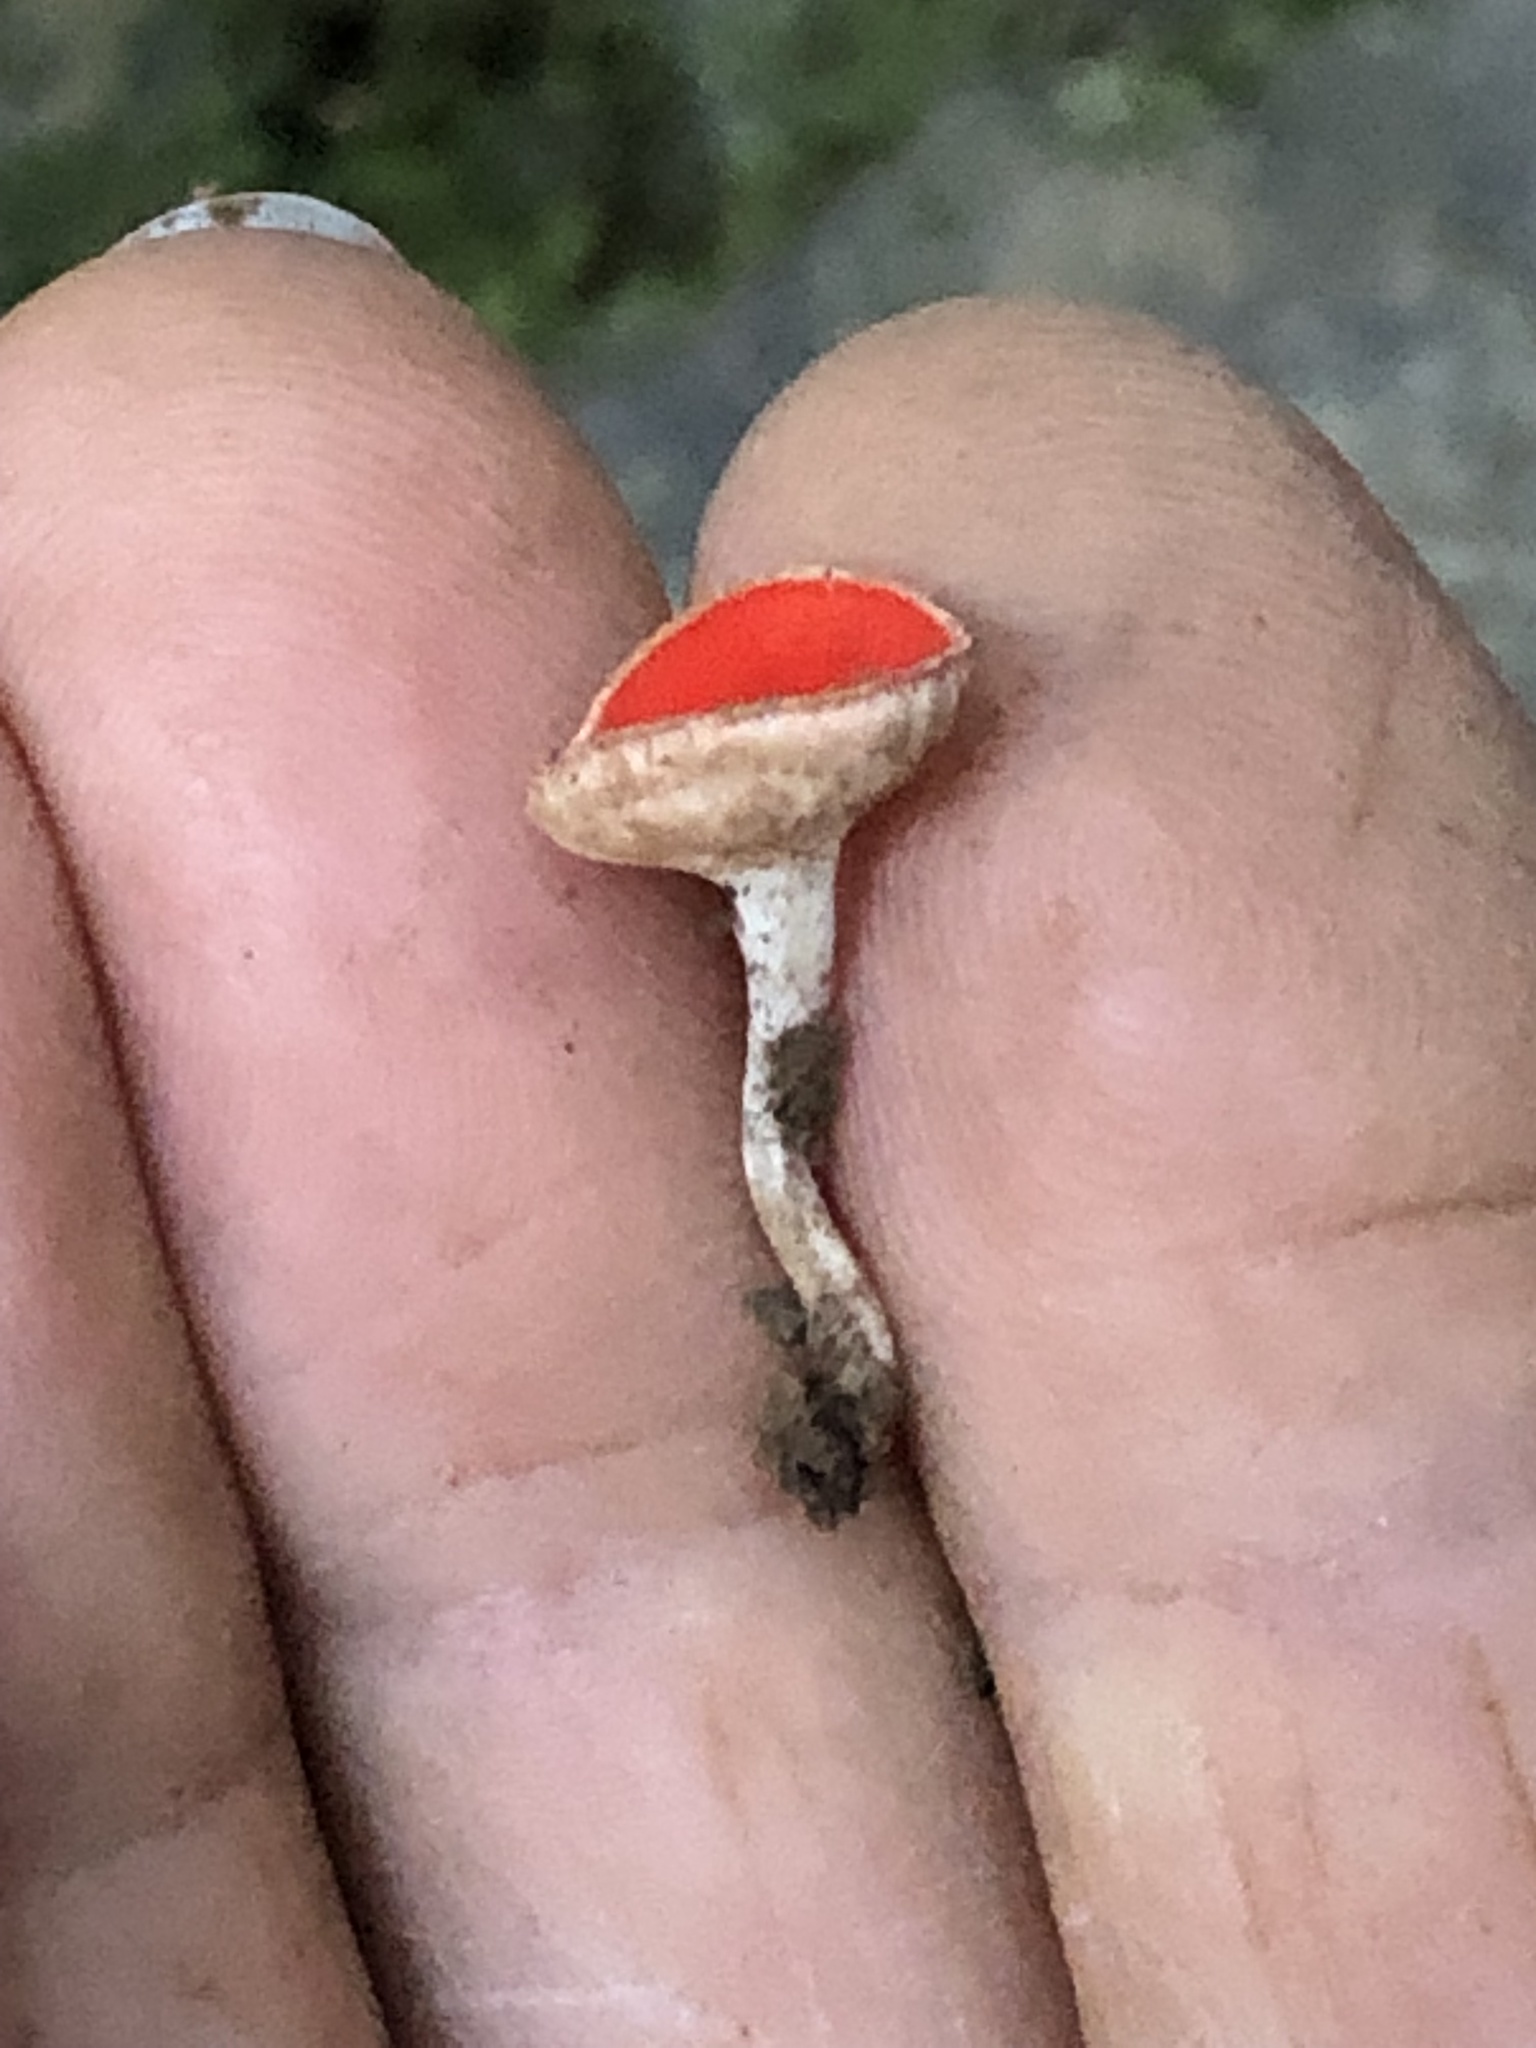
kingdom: Fungi
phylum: Ascomycota
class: Pezizomycetes
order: Pezizales
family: Sarcoscyphaceae
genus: Sarcoscypha
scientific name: Sarcoscypha coccinea
